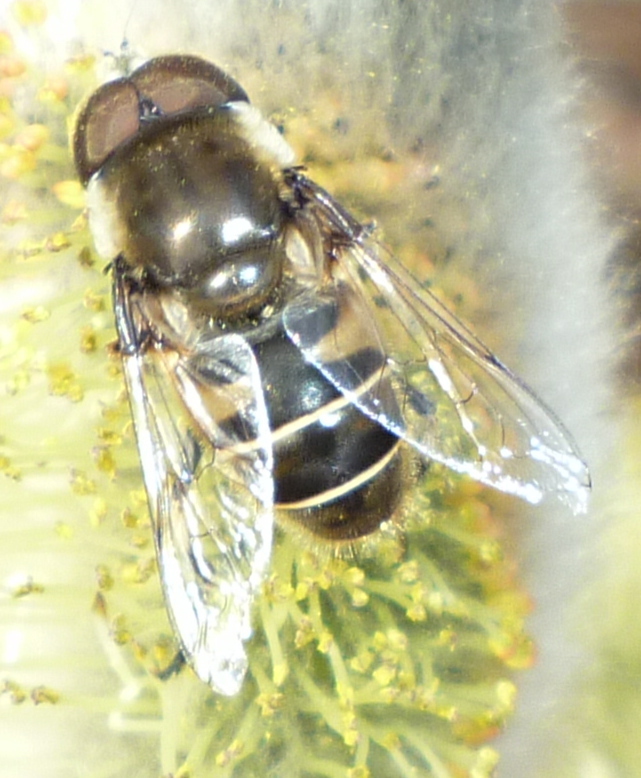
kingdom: Animalia
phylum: Arthropoda
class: Insecta
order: Diptera
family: Syrphidae
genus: Eristalis
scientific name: Eristalis dimidiata
